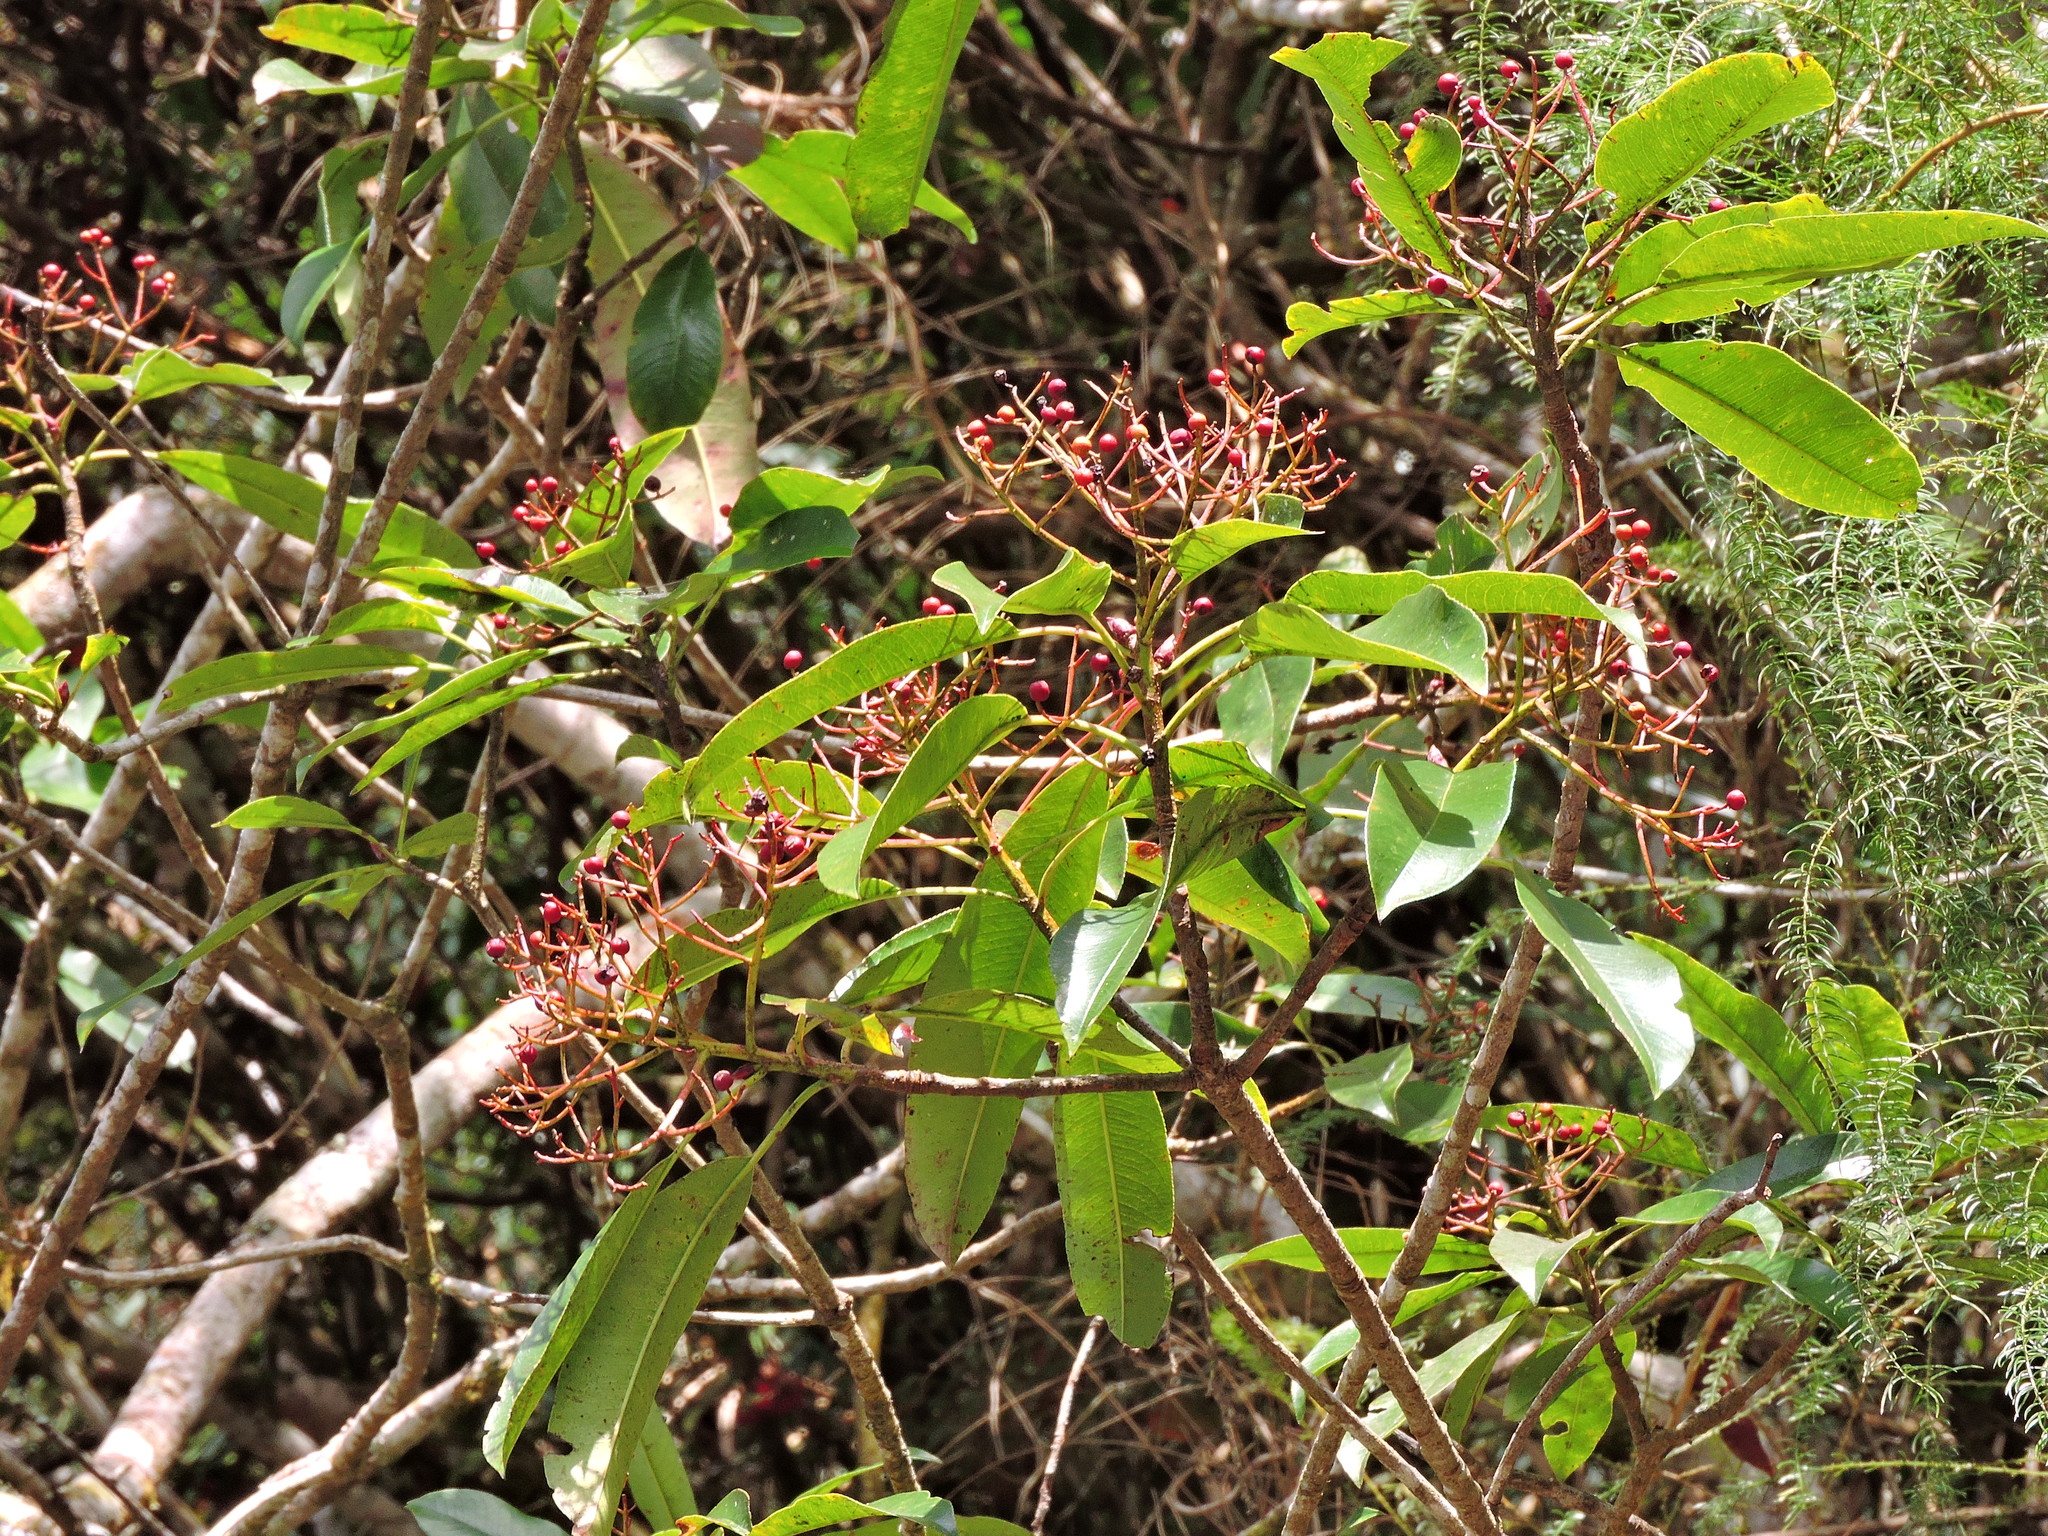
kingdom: Plantae
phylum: Tracheophyta
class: Magnoliopsida
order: Rosales
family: Rosaceae
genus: Photinia
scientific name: Photinia serratifolia
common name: Taiwanese photinia
